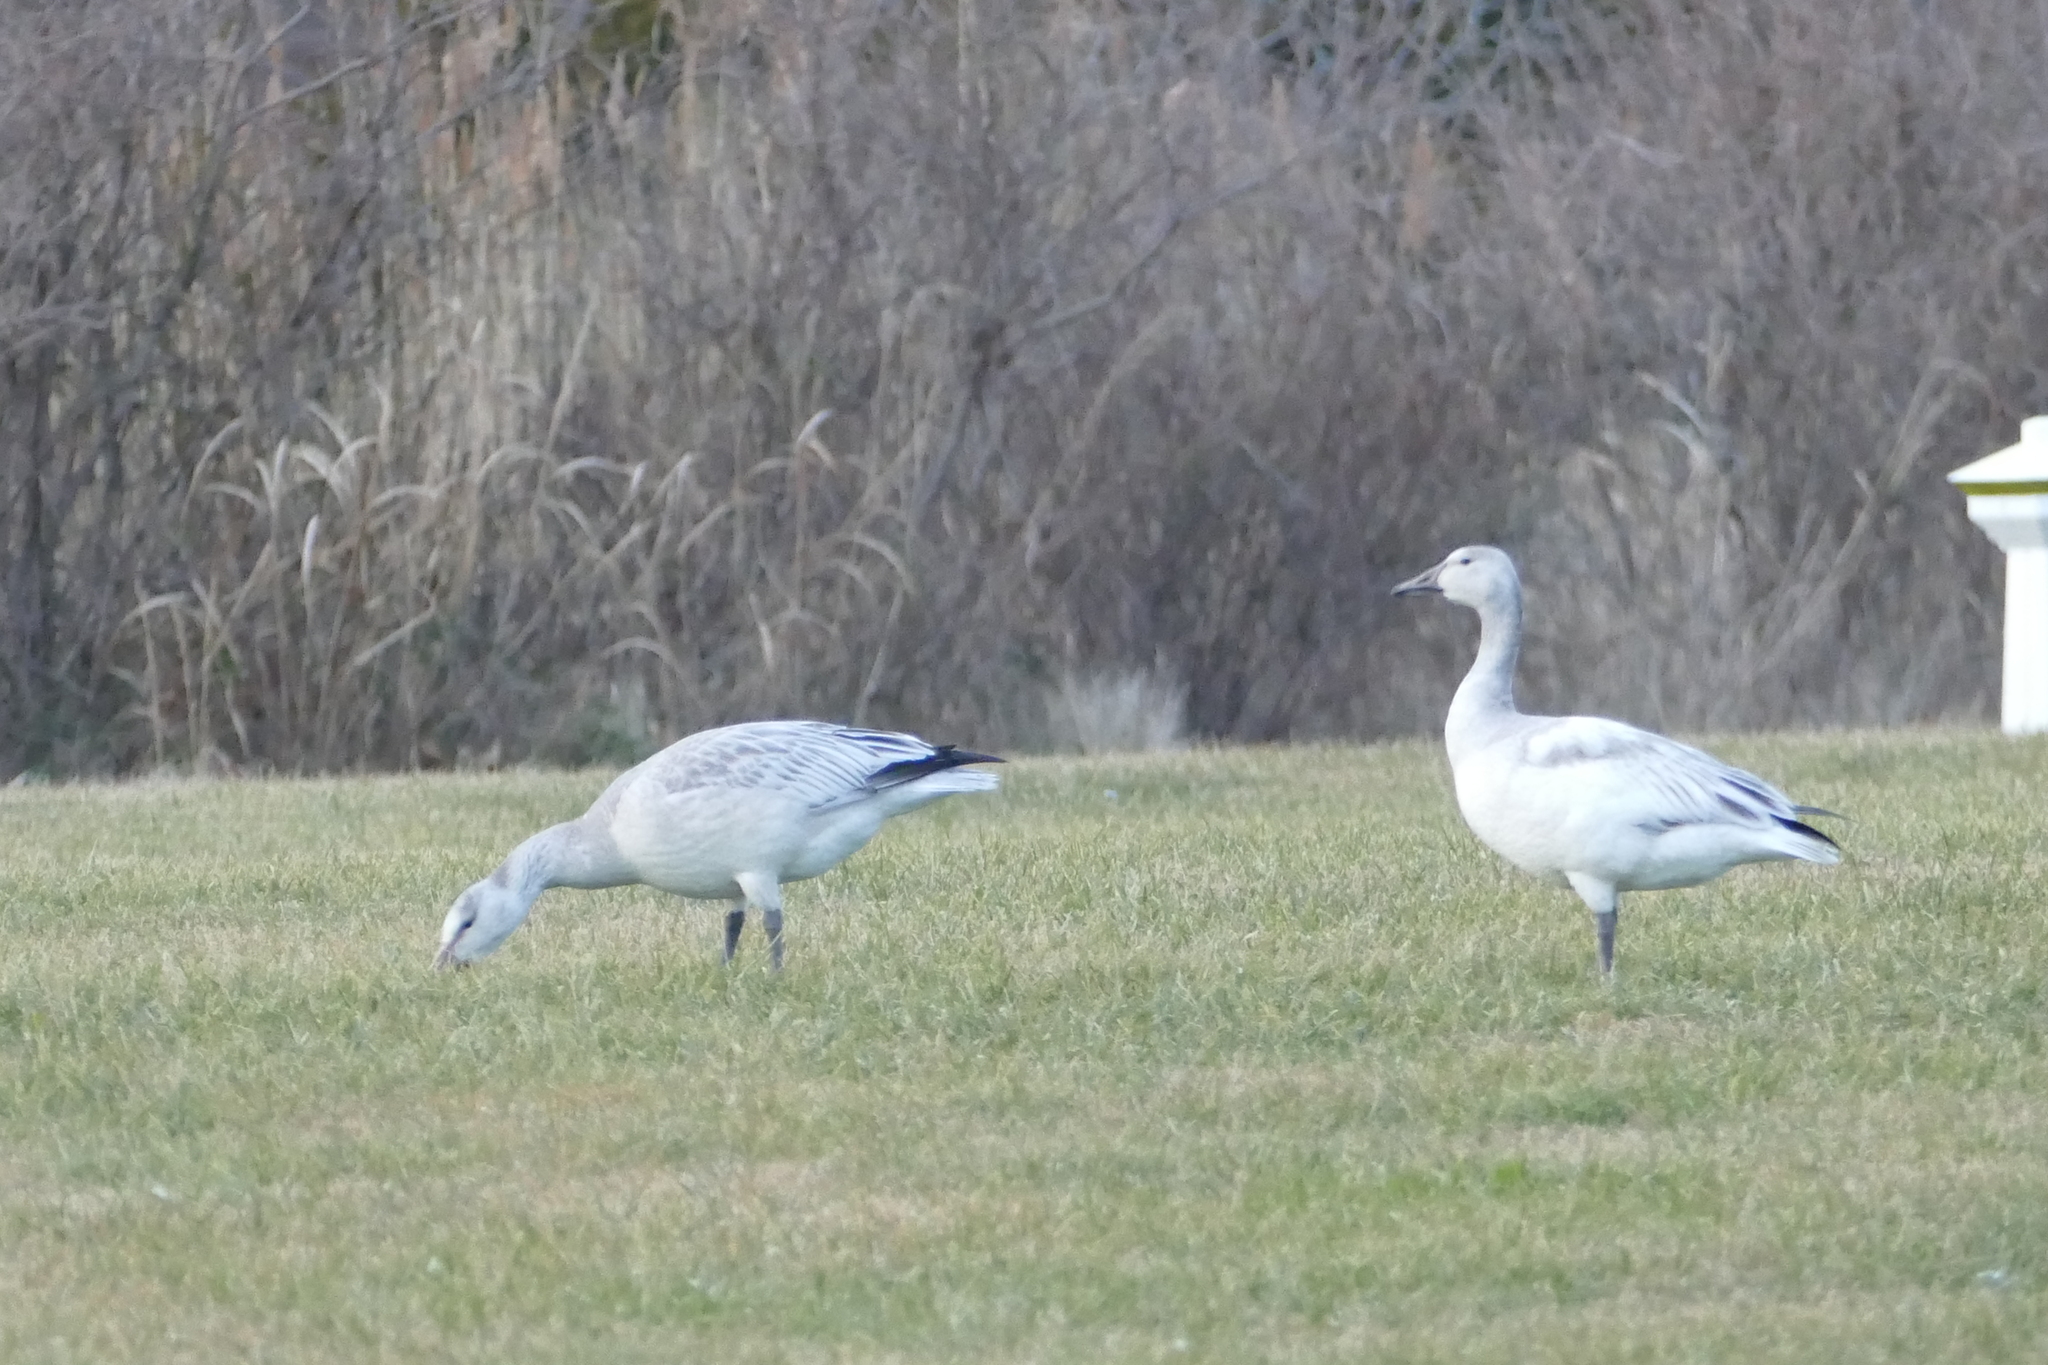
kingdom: Animalia
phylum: Chordata
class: Aves
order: Anseriformes
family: Anatidae
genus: Anser
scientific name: Anser caerulescens
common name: Snow goose
